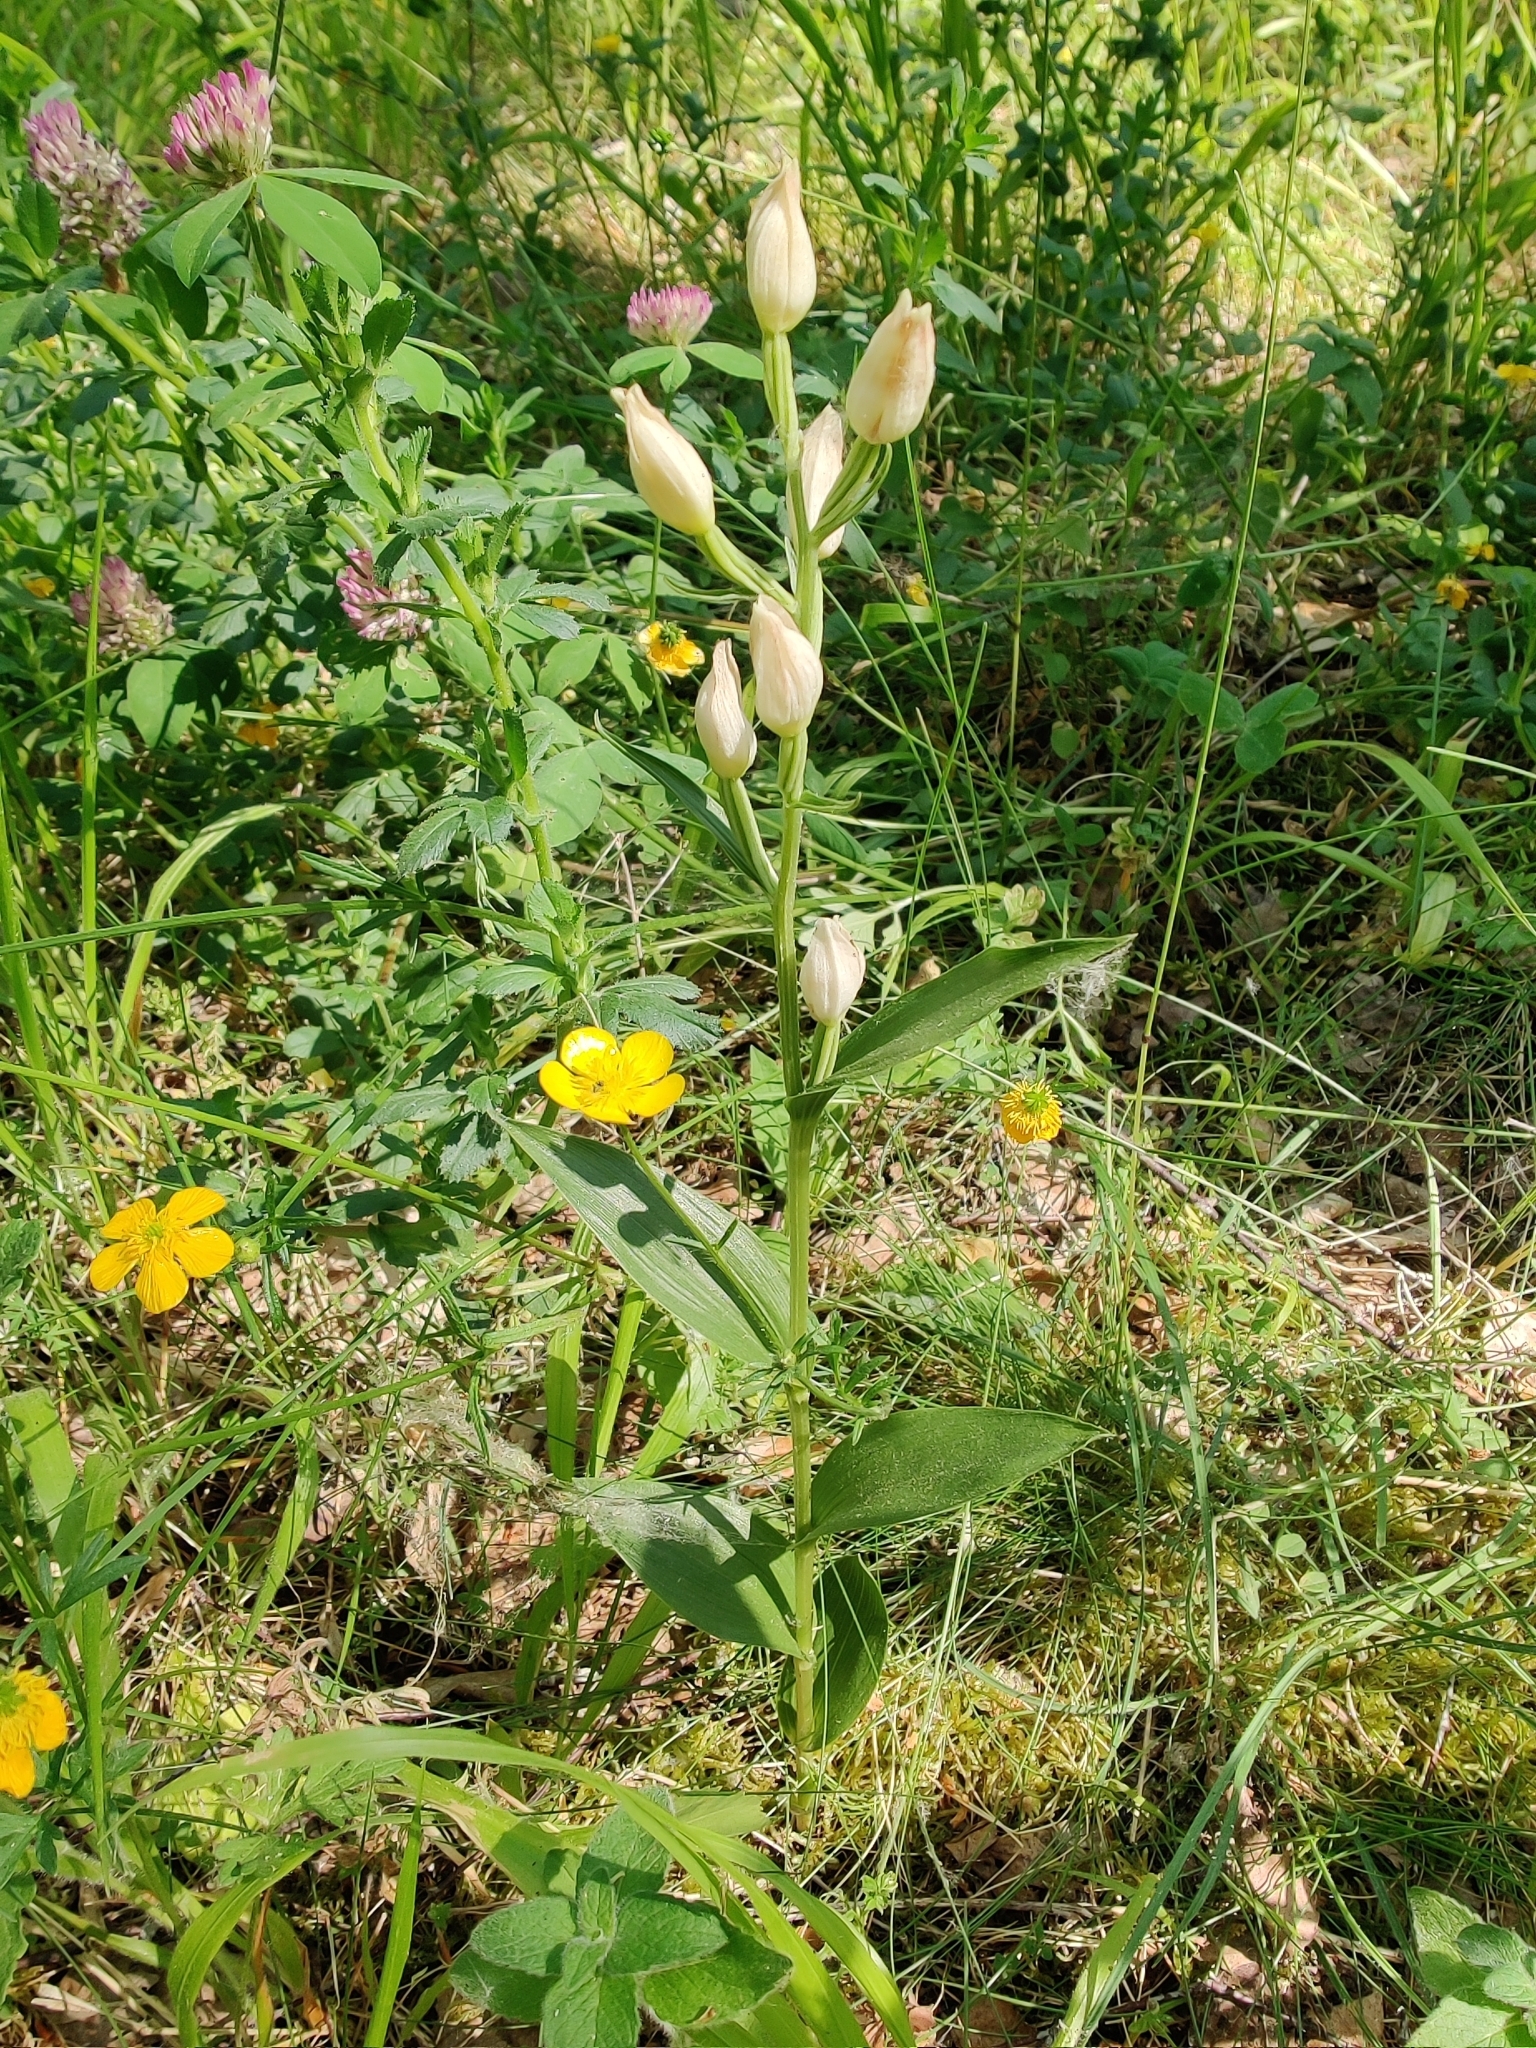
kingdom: Plantae
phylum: Tracheophyta
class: Liliopsida
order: Asparagales
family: Orchidaceae
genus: Cephalanthera
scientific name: Cephalanthera damasonium
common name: White helleborine
